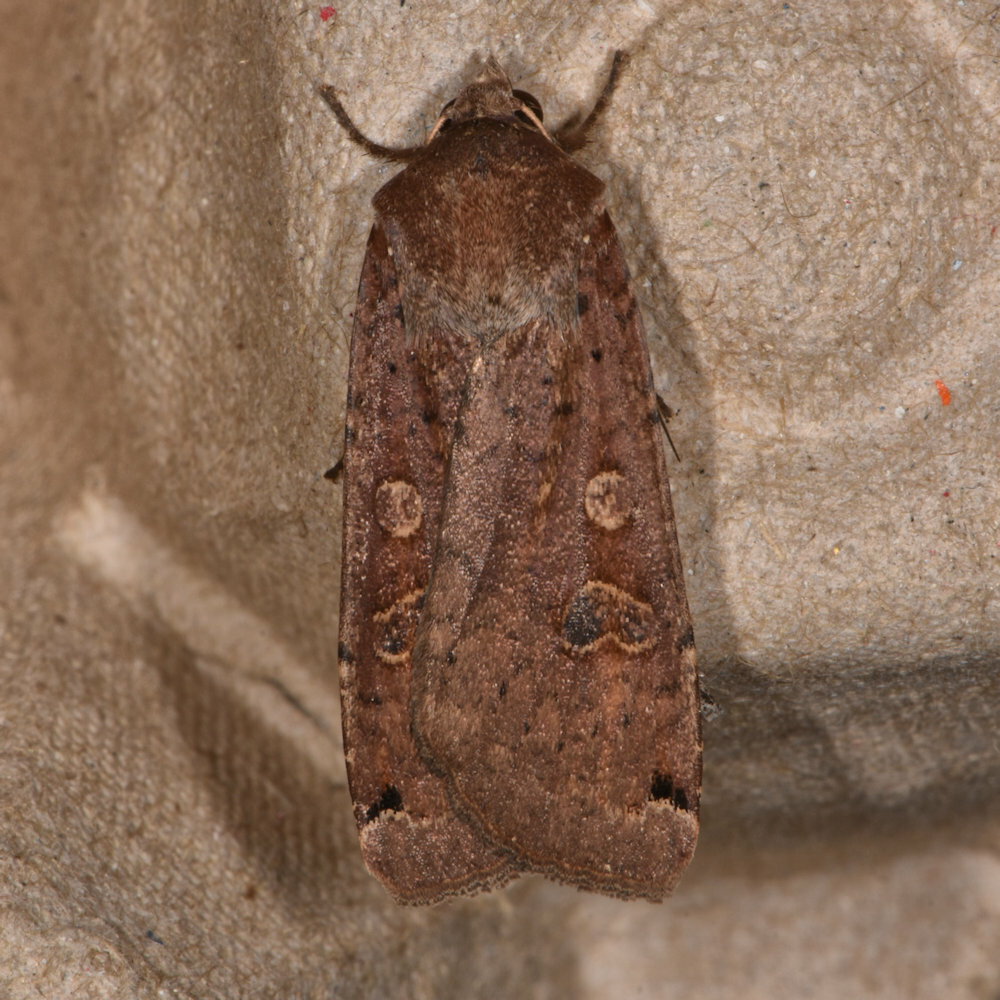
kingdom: Animalia
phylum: Arthropoda
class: Insecta
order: Lepidoptera
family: Noctuidae
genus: Noctua
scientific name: Noctua pronuba
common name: Large yellow underwing
